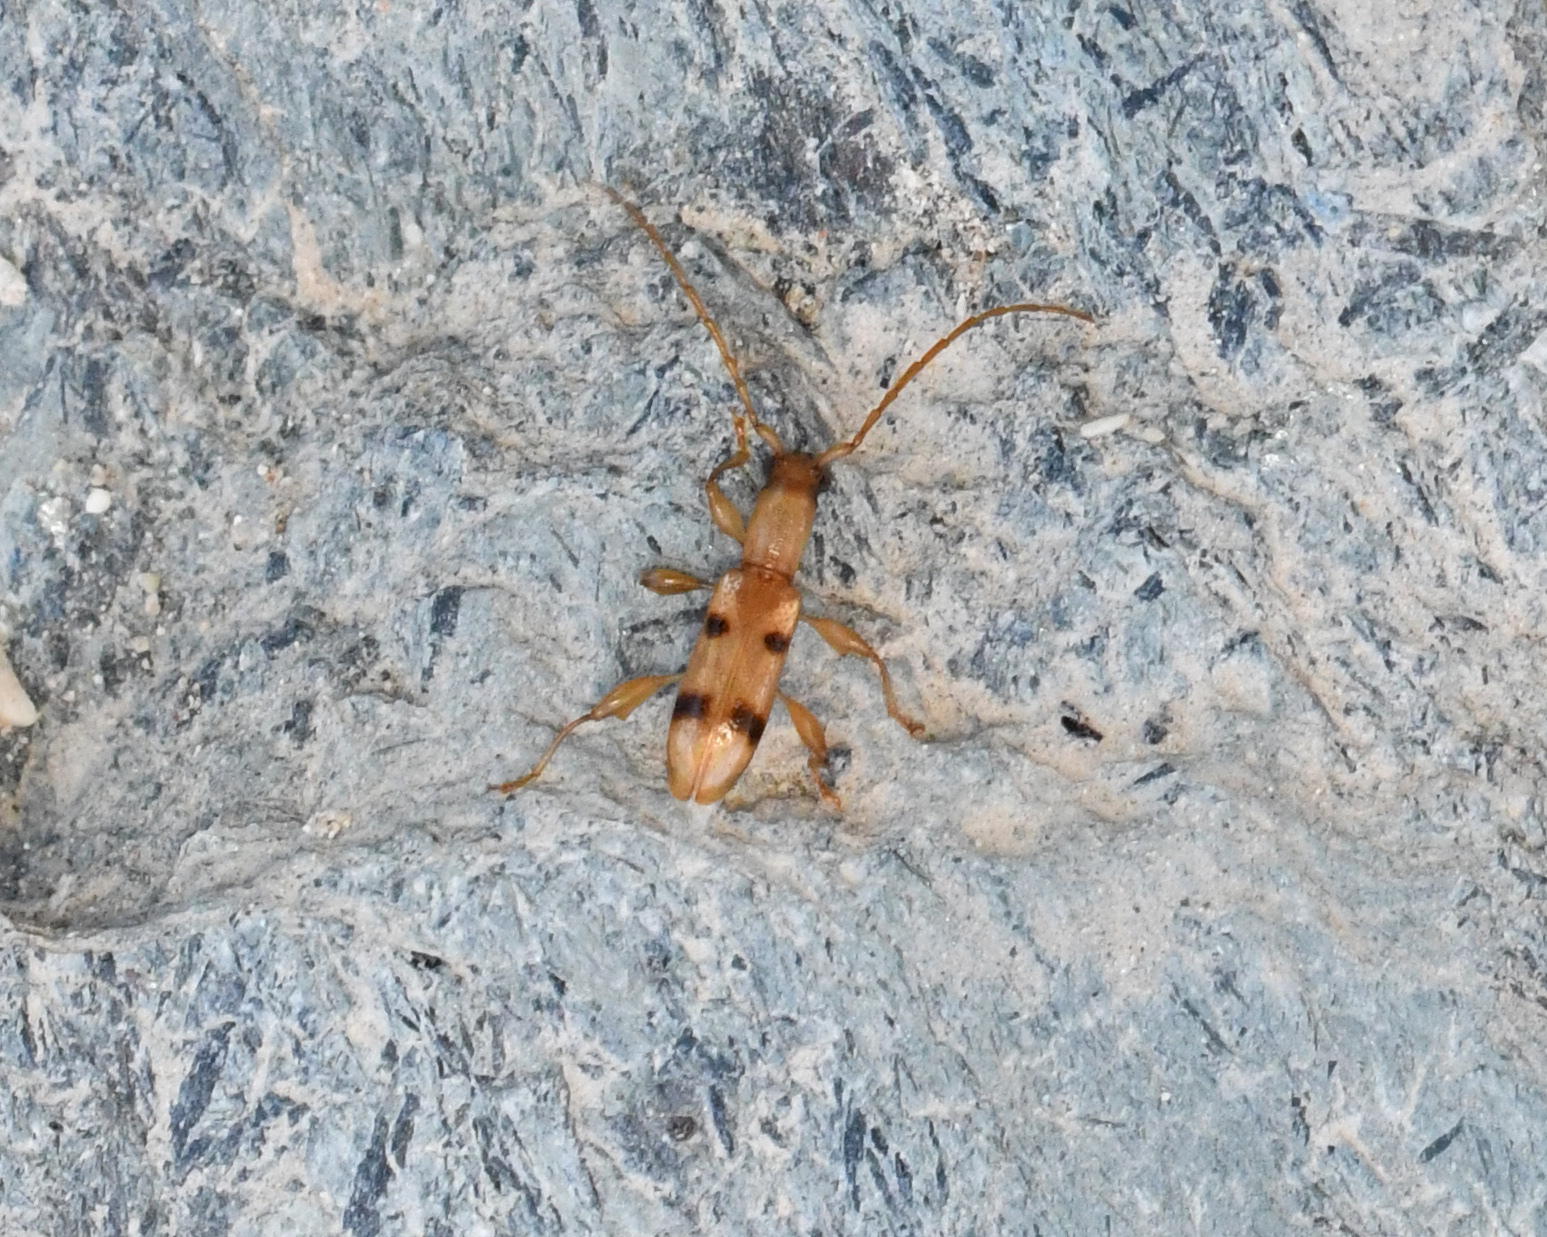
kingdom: Animalia
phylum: Arthropoda
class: Insecta
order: Coleoptera
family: Cerambycidae
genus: Plectromerus
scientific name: Plectromerus distinctus
